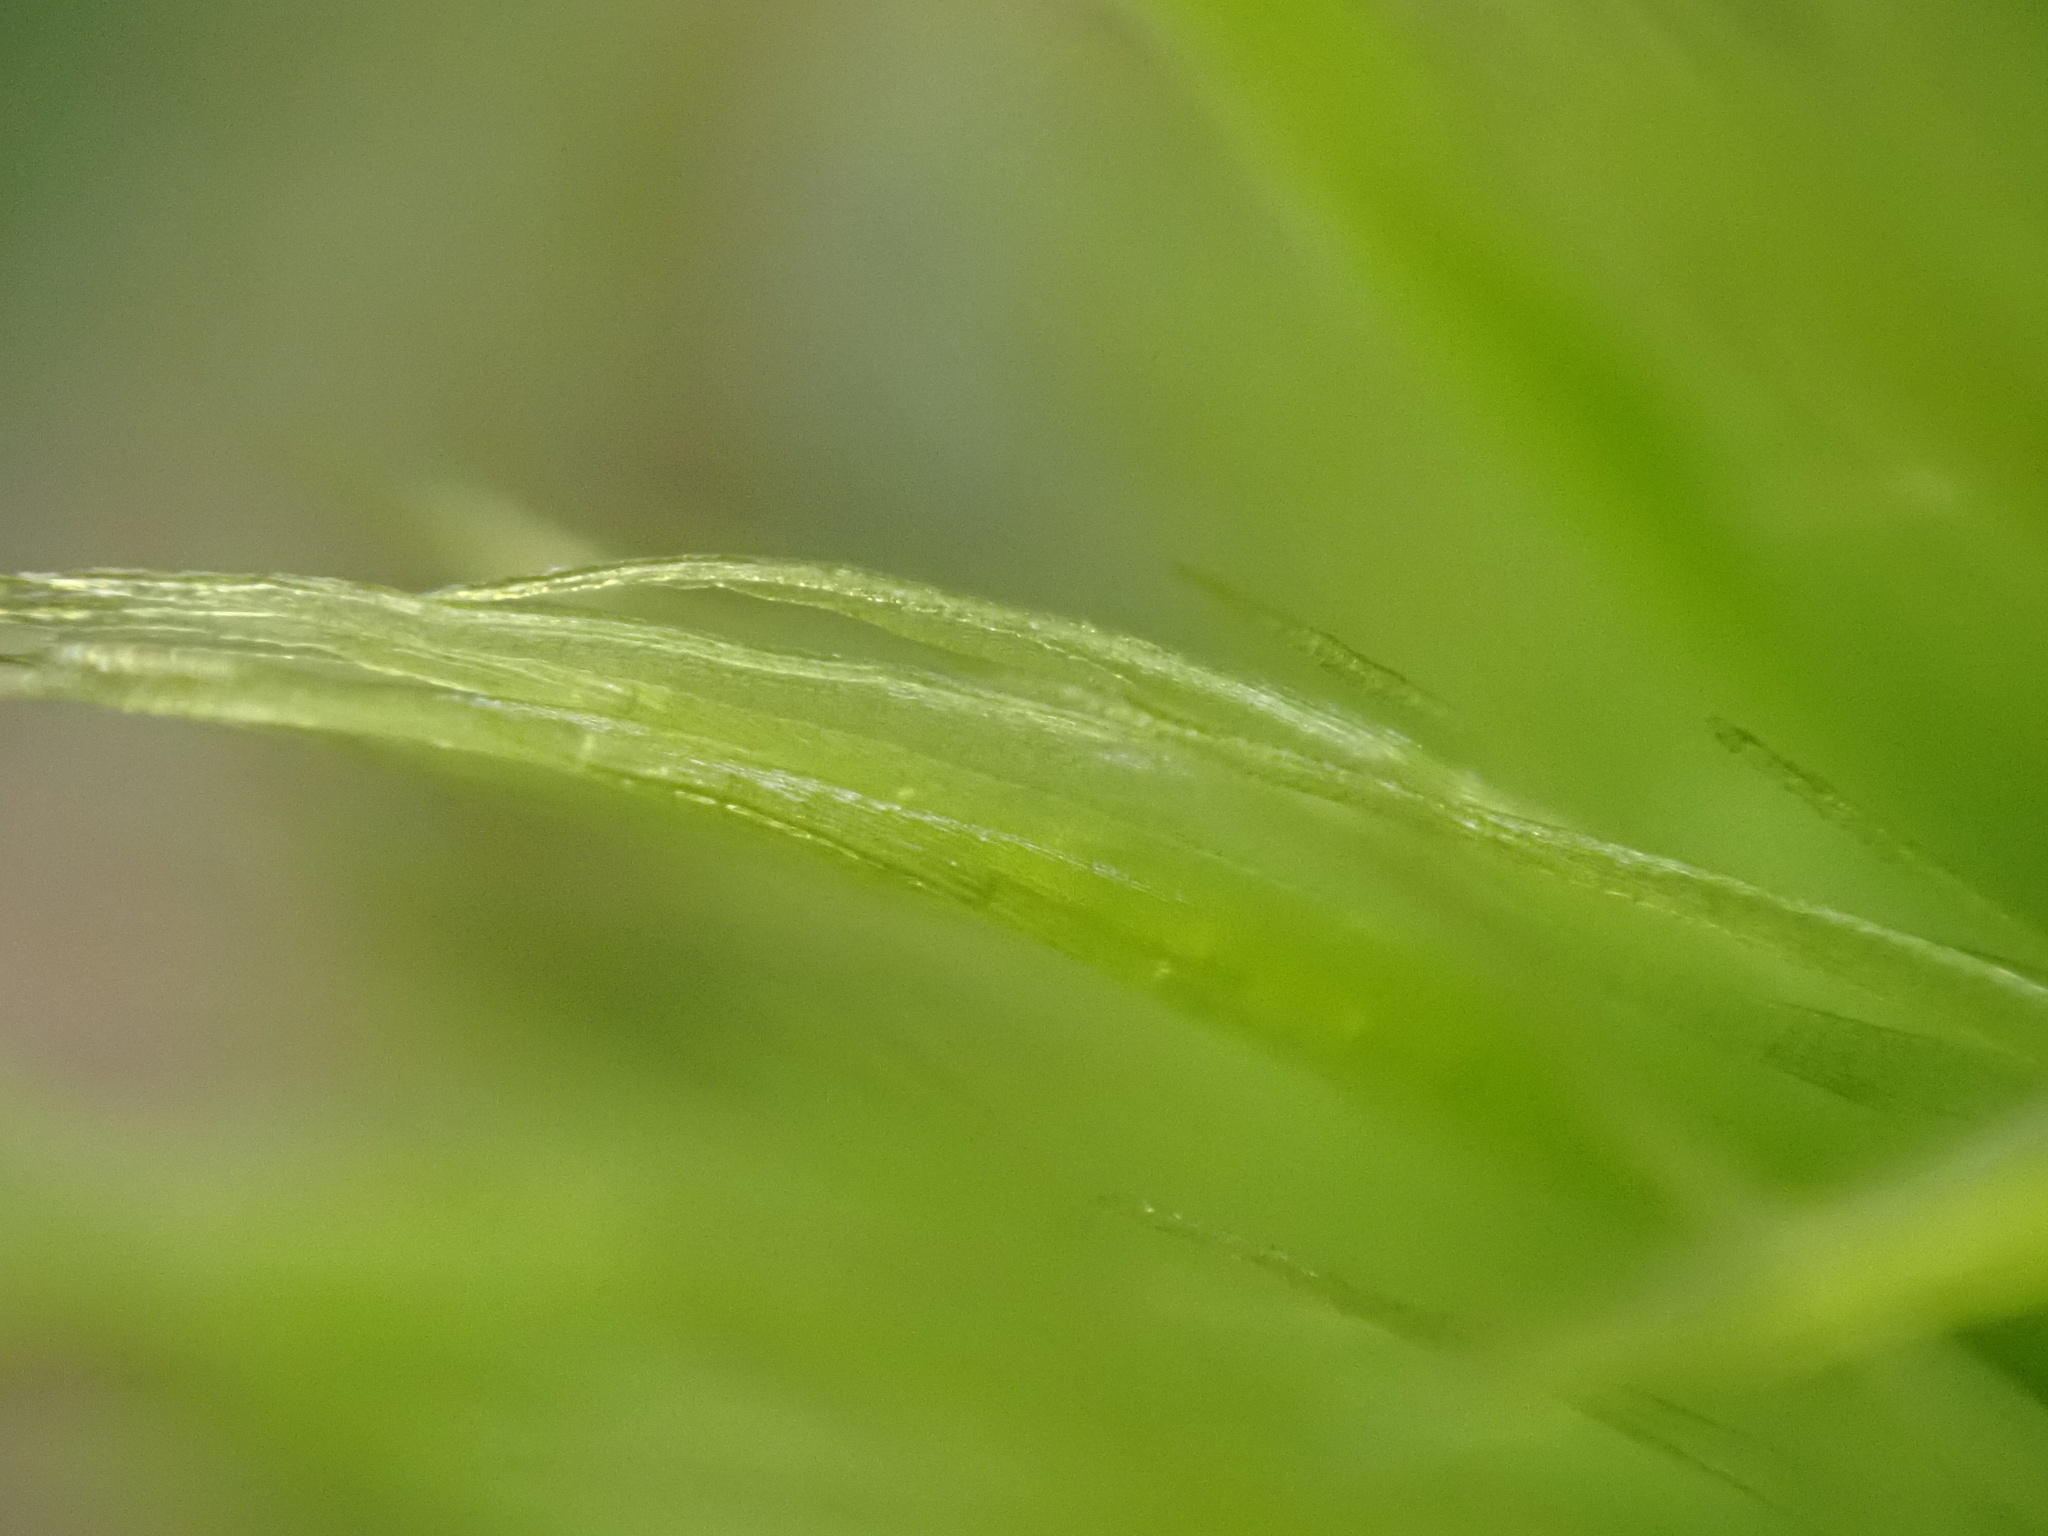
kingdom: Plantae
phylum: Bryophyta
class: Bryopsida
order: Dicranales
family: Dicranaceae
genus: Dicranum
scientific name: Dicranum scoparium
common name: Broom fork-moss
